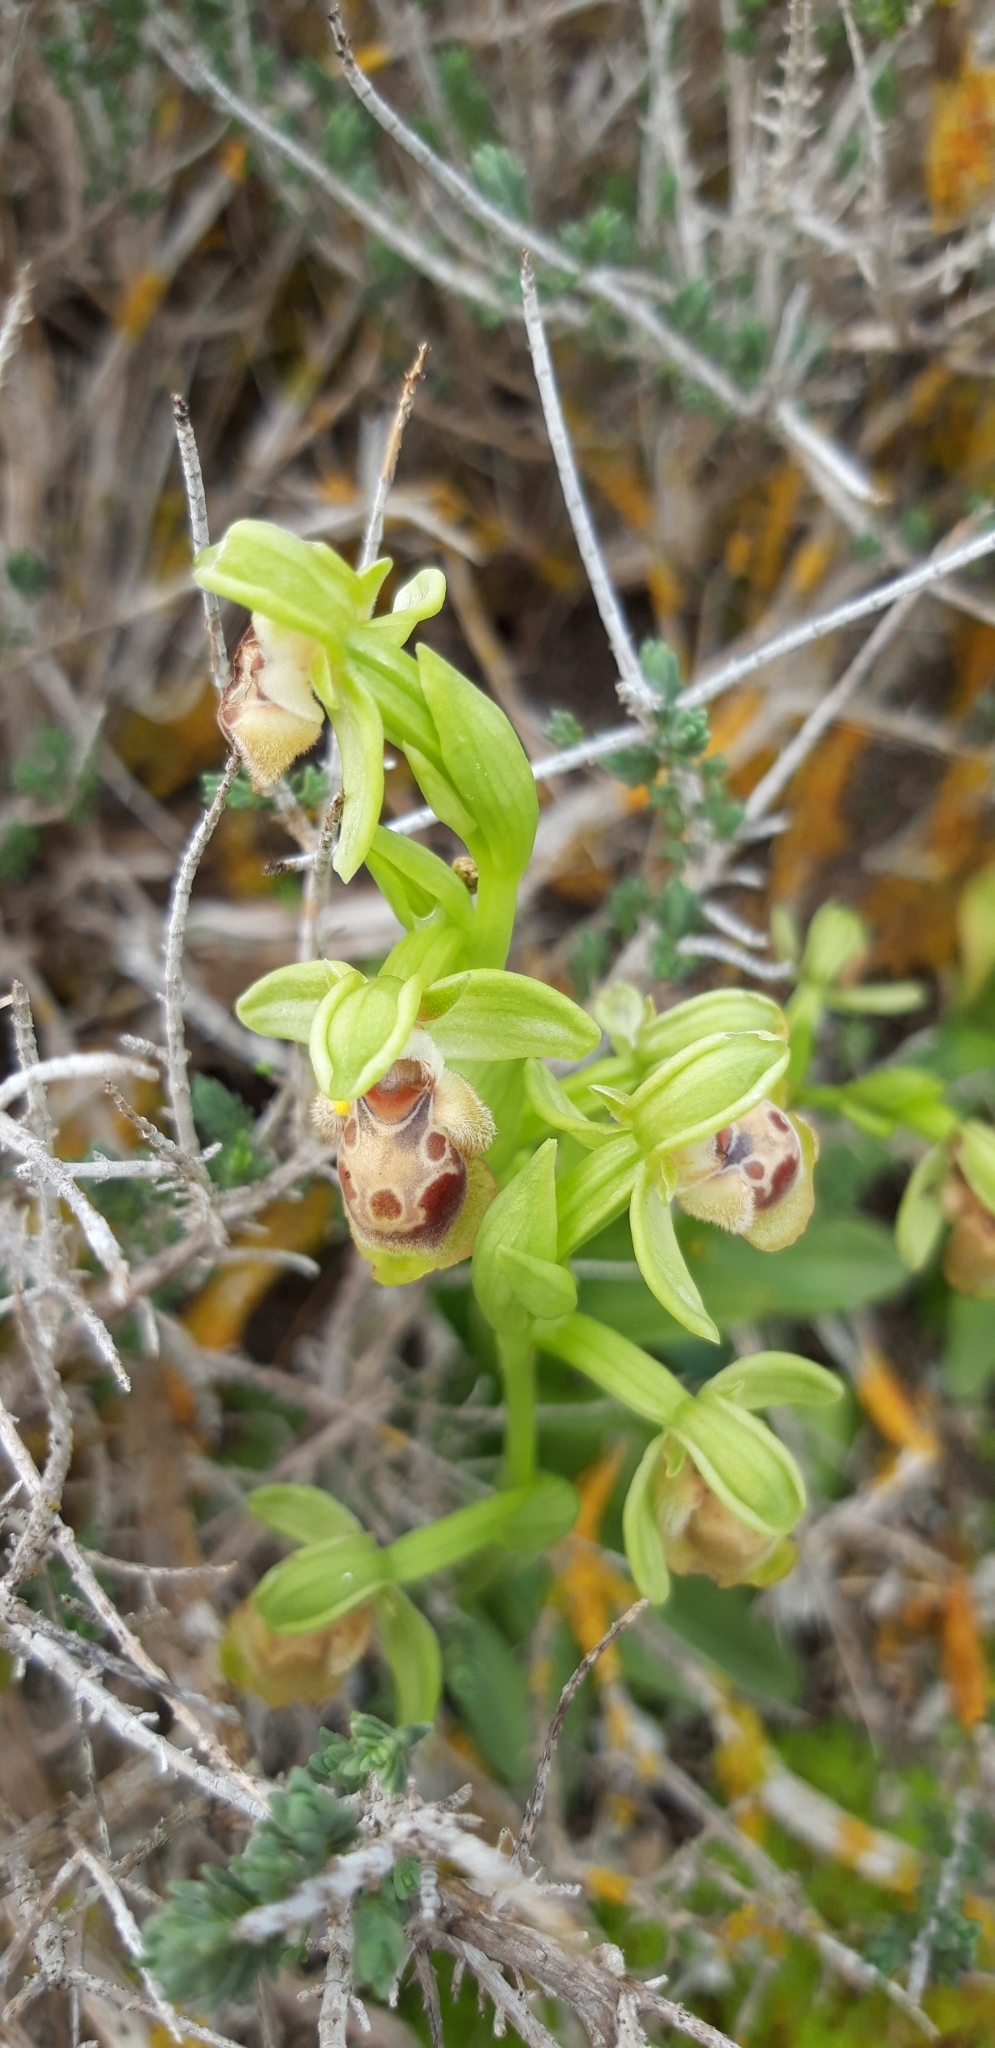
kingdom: Plantae
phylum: Tracheophyta
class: Liliopsida
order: Asparagales
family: Orchidaceae
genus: Ophrys
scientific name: Ophrys umbilicata
